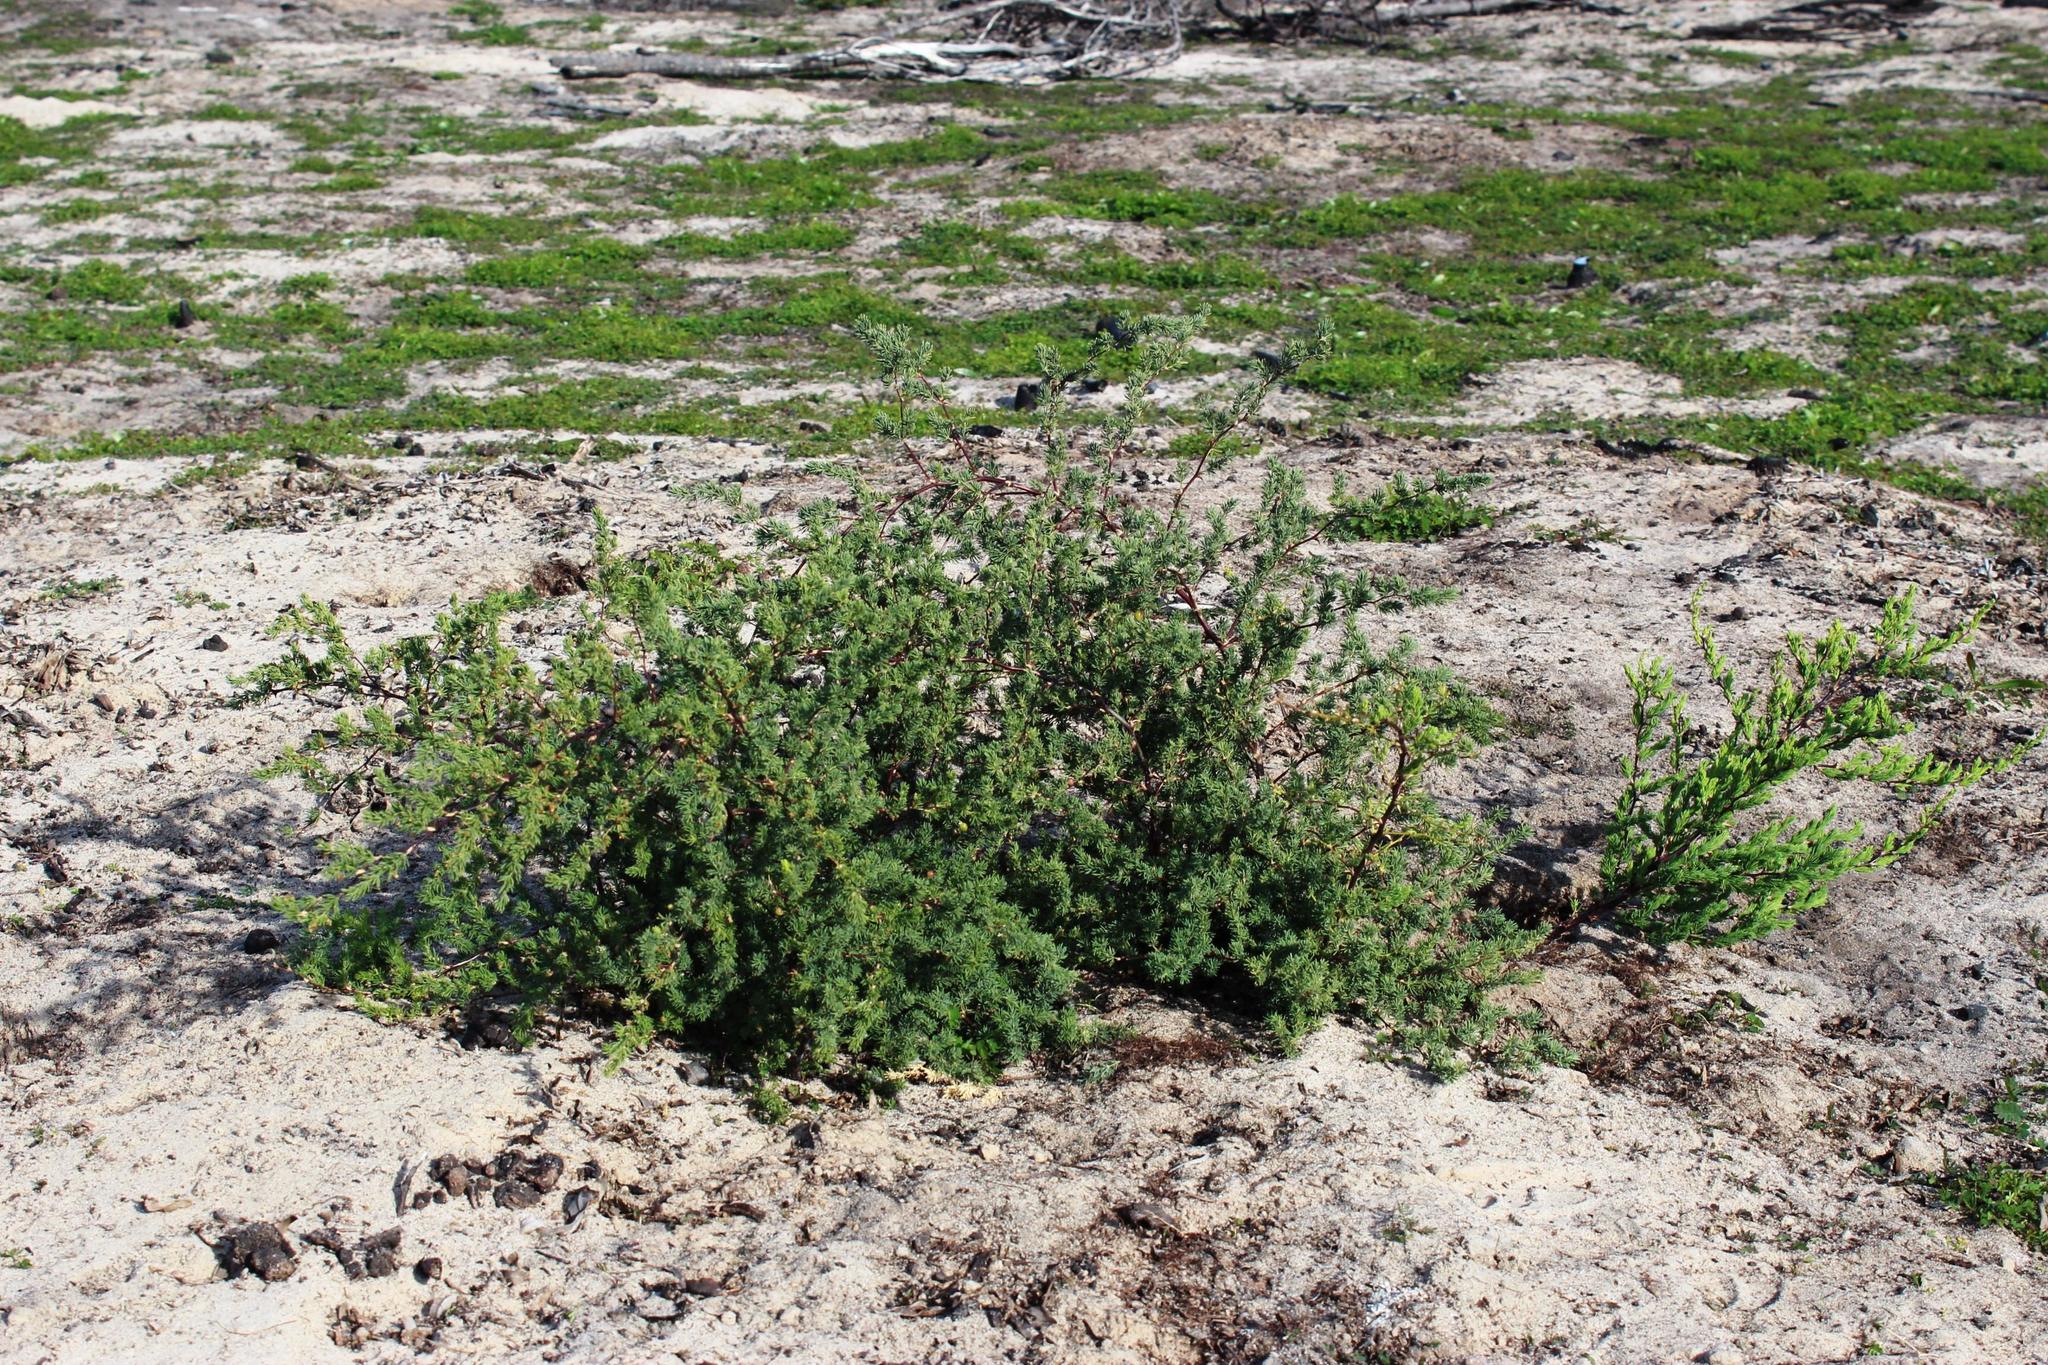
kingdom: Plantae
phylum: Tracheophyta
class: Liliopsida
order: Asparagales
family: Asparagaceae
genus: Asparagus
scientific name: Asparagus rubicundus
